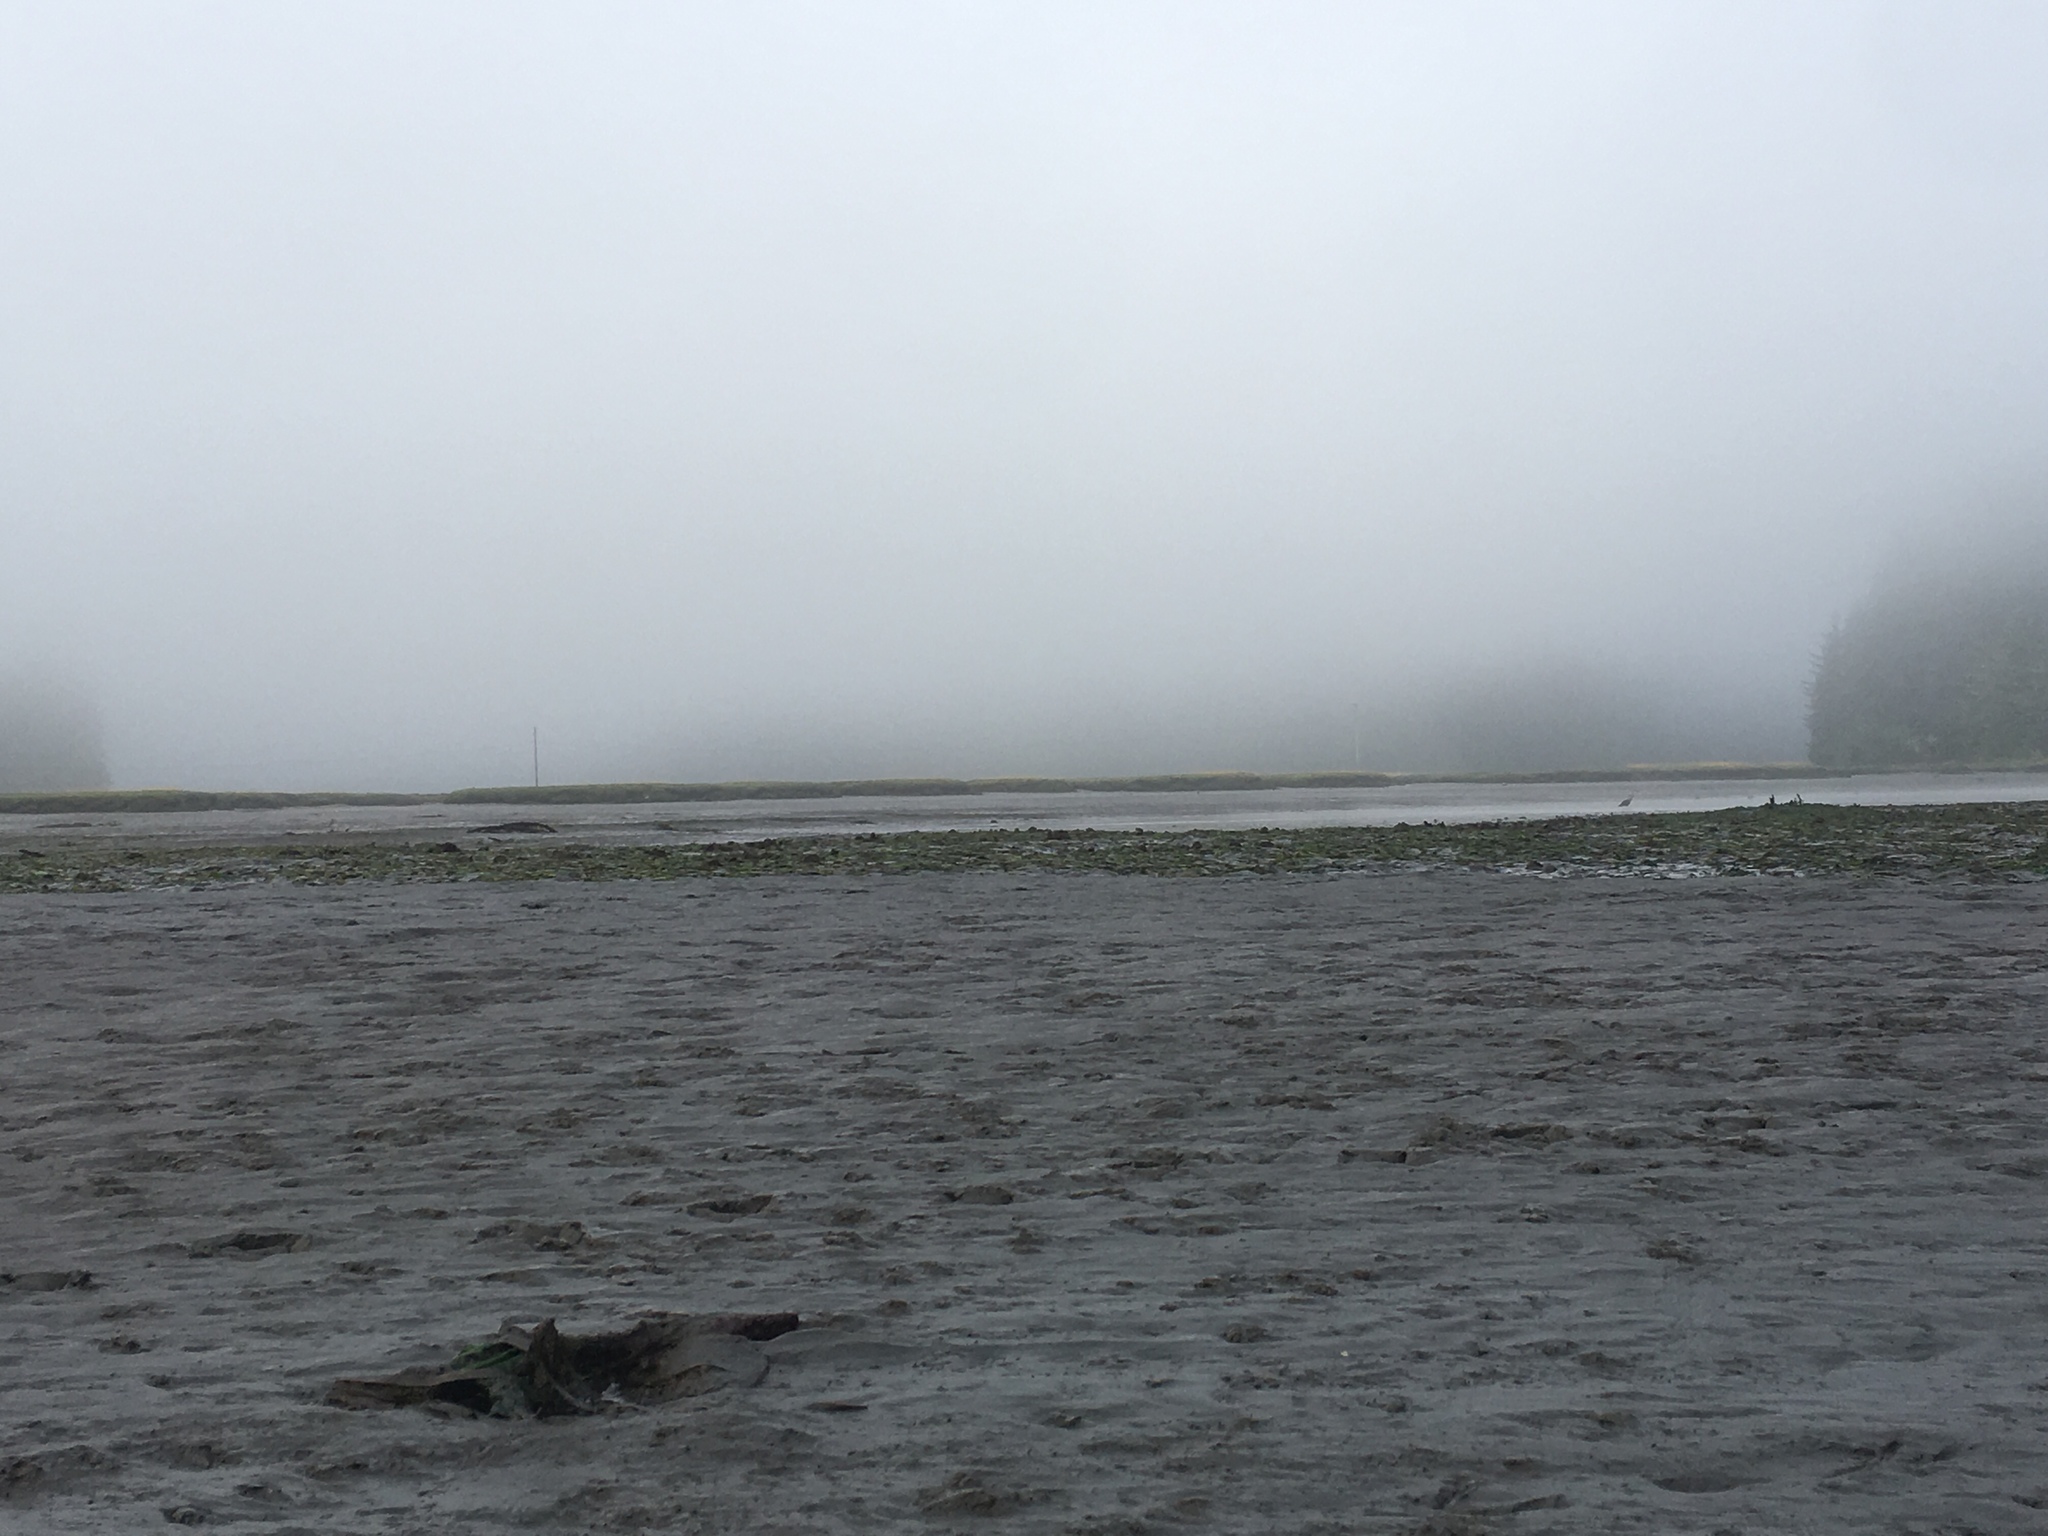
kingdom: Plantae
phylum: Tracheophyta
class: Liliopsida
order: Alismatales
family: Zosteraceae
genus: Zostera
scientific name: Zostera marina
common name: Eelgrass
